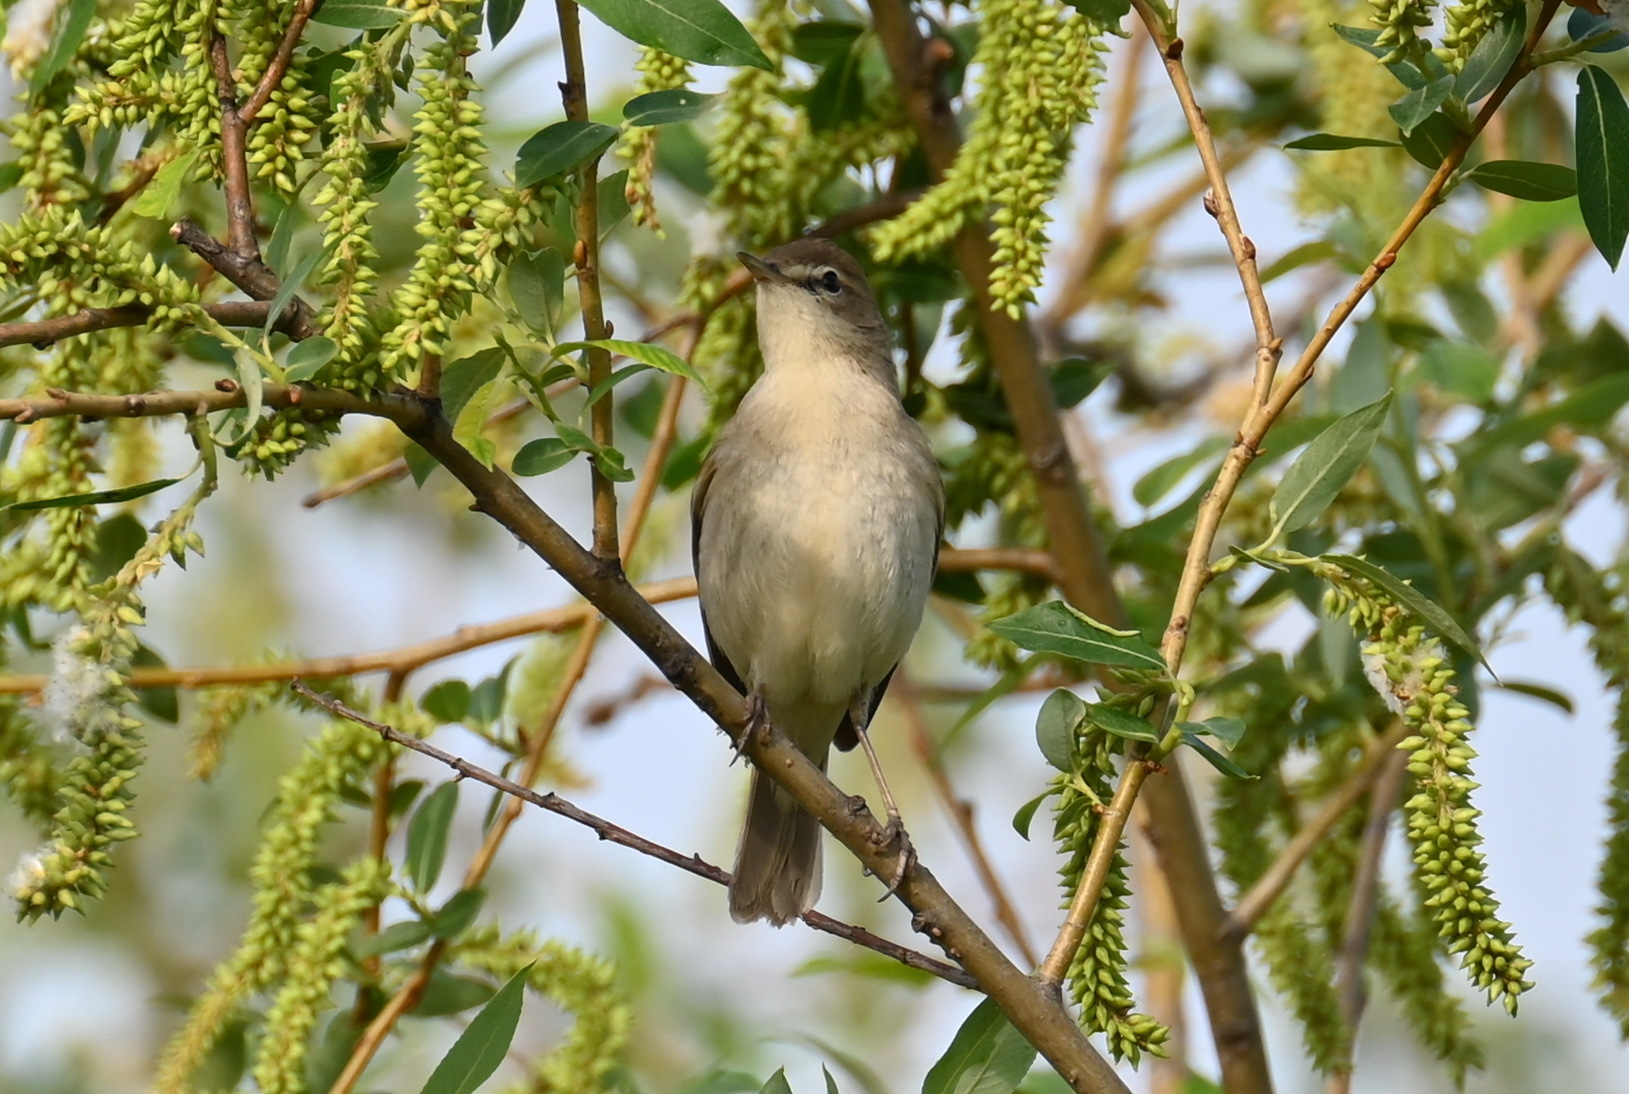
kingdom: Animalia
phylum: Chordata
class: Aves
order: Passeriformes
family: Acrocephalidae
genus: Iduna
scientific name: Iduna caligata
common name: Booted warbler
